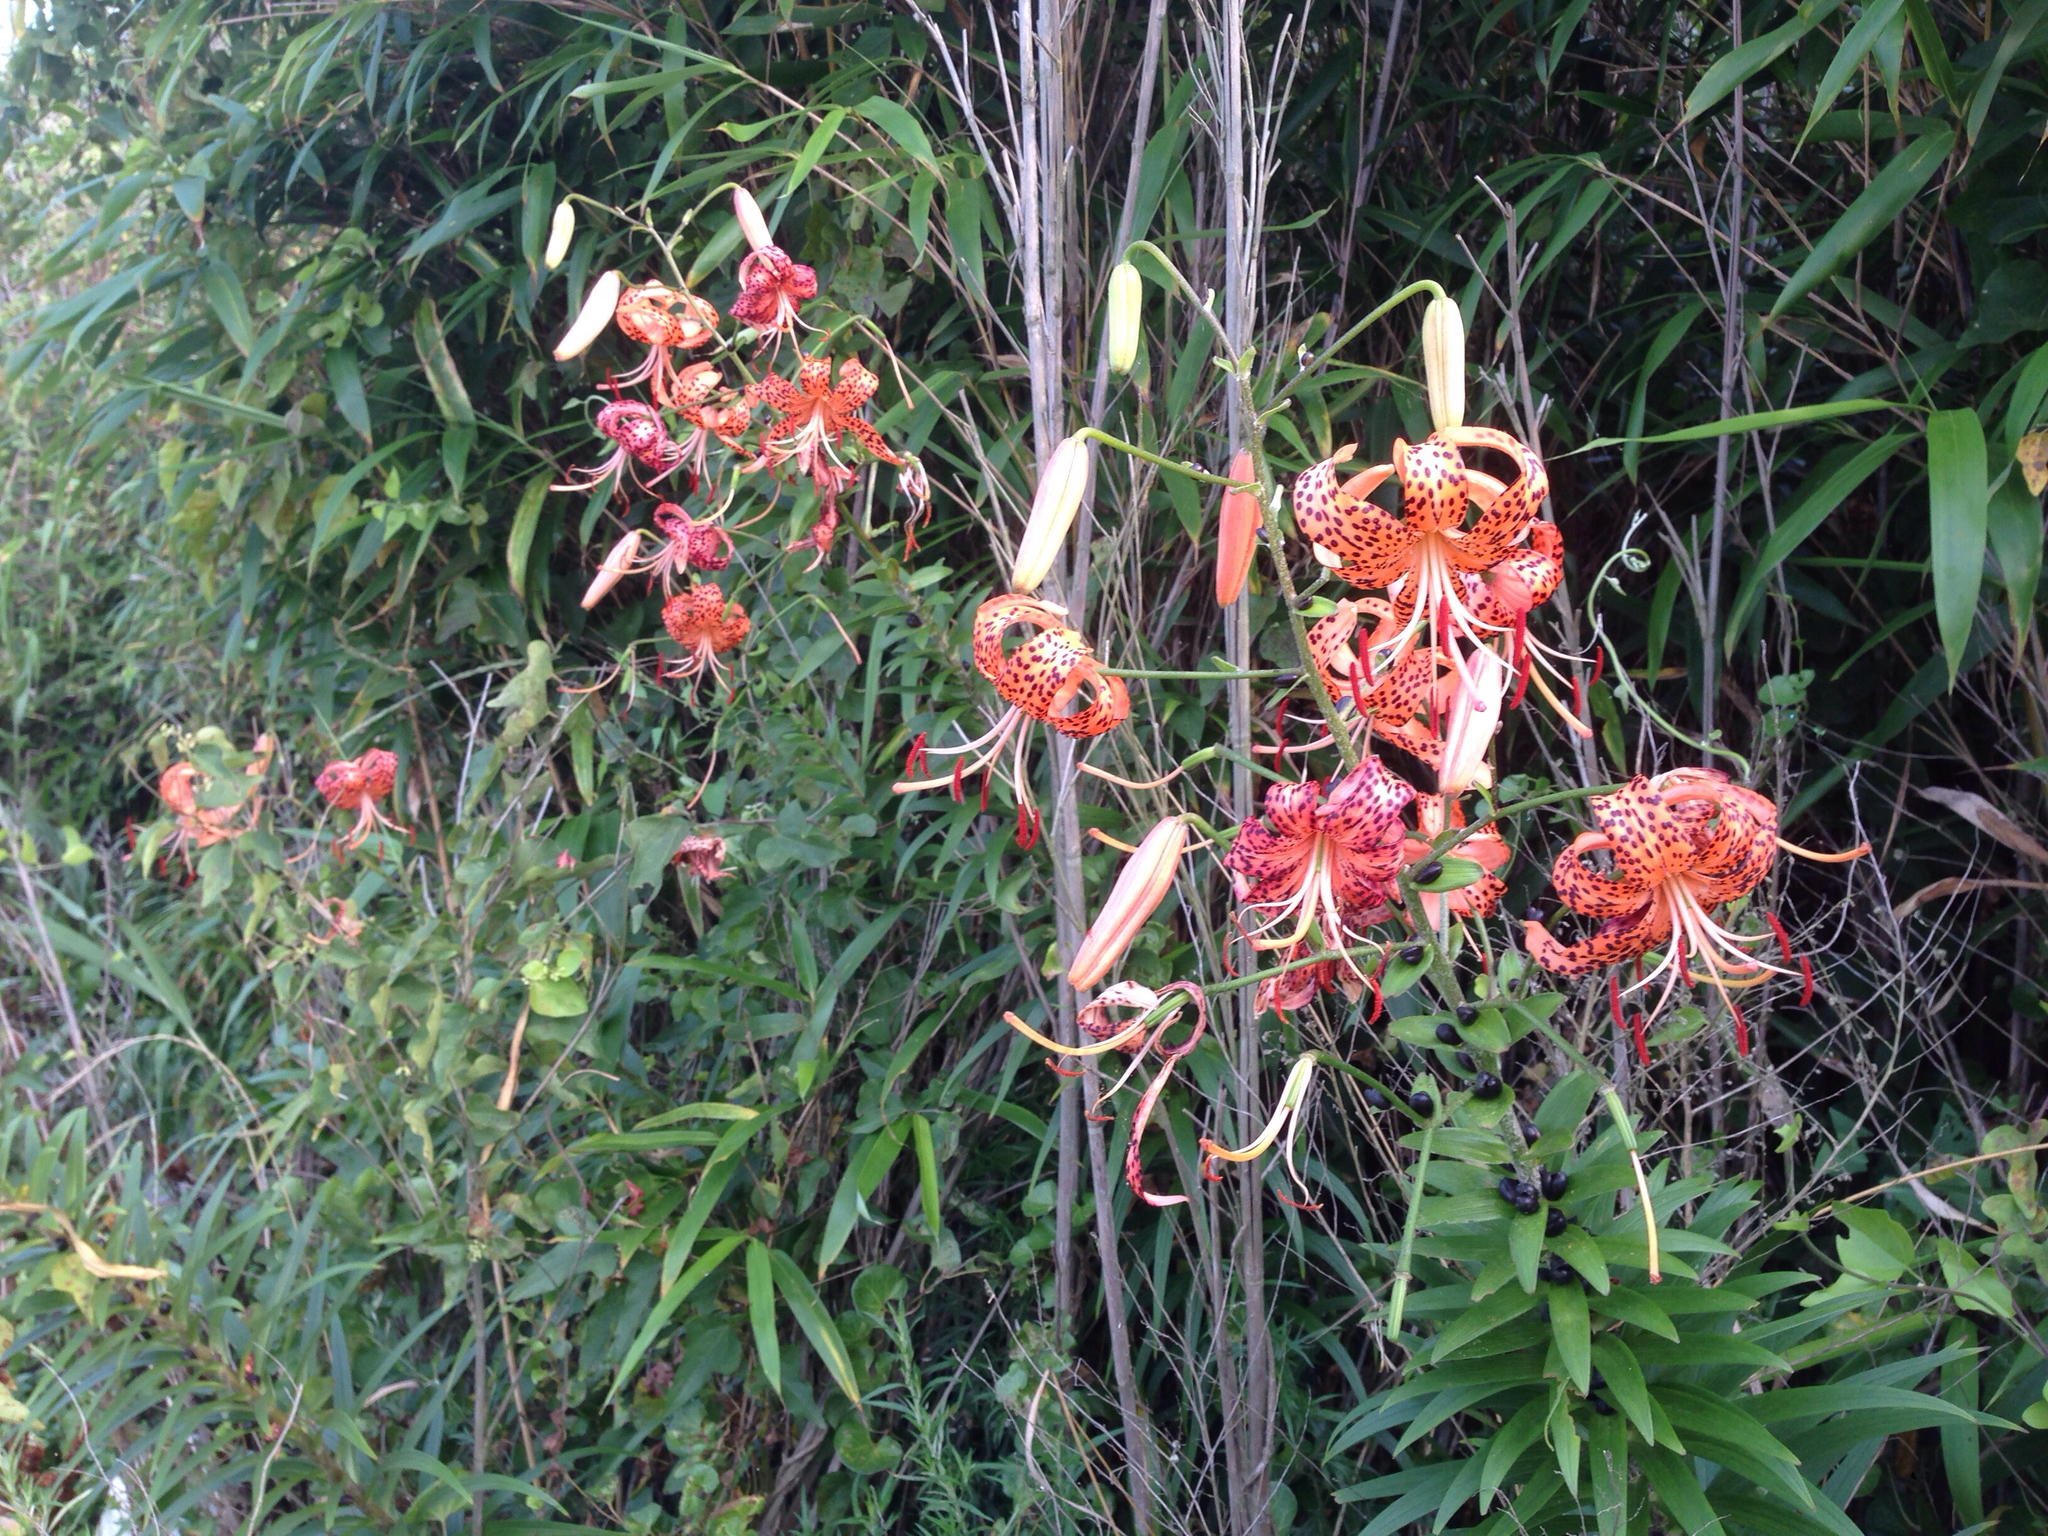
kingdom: Plantae
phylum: Tracheophyta
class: Liliopsida
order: Liliales
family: Liliaceae
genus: Lilium
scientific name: Lilium lancifolium
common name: Tiger lily
